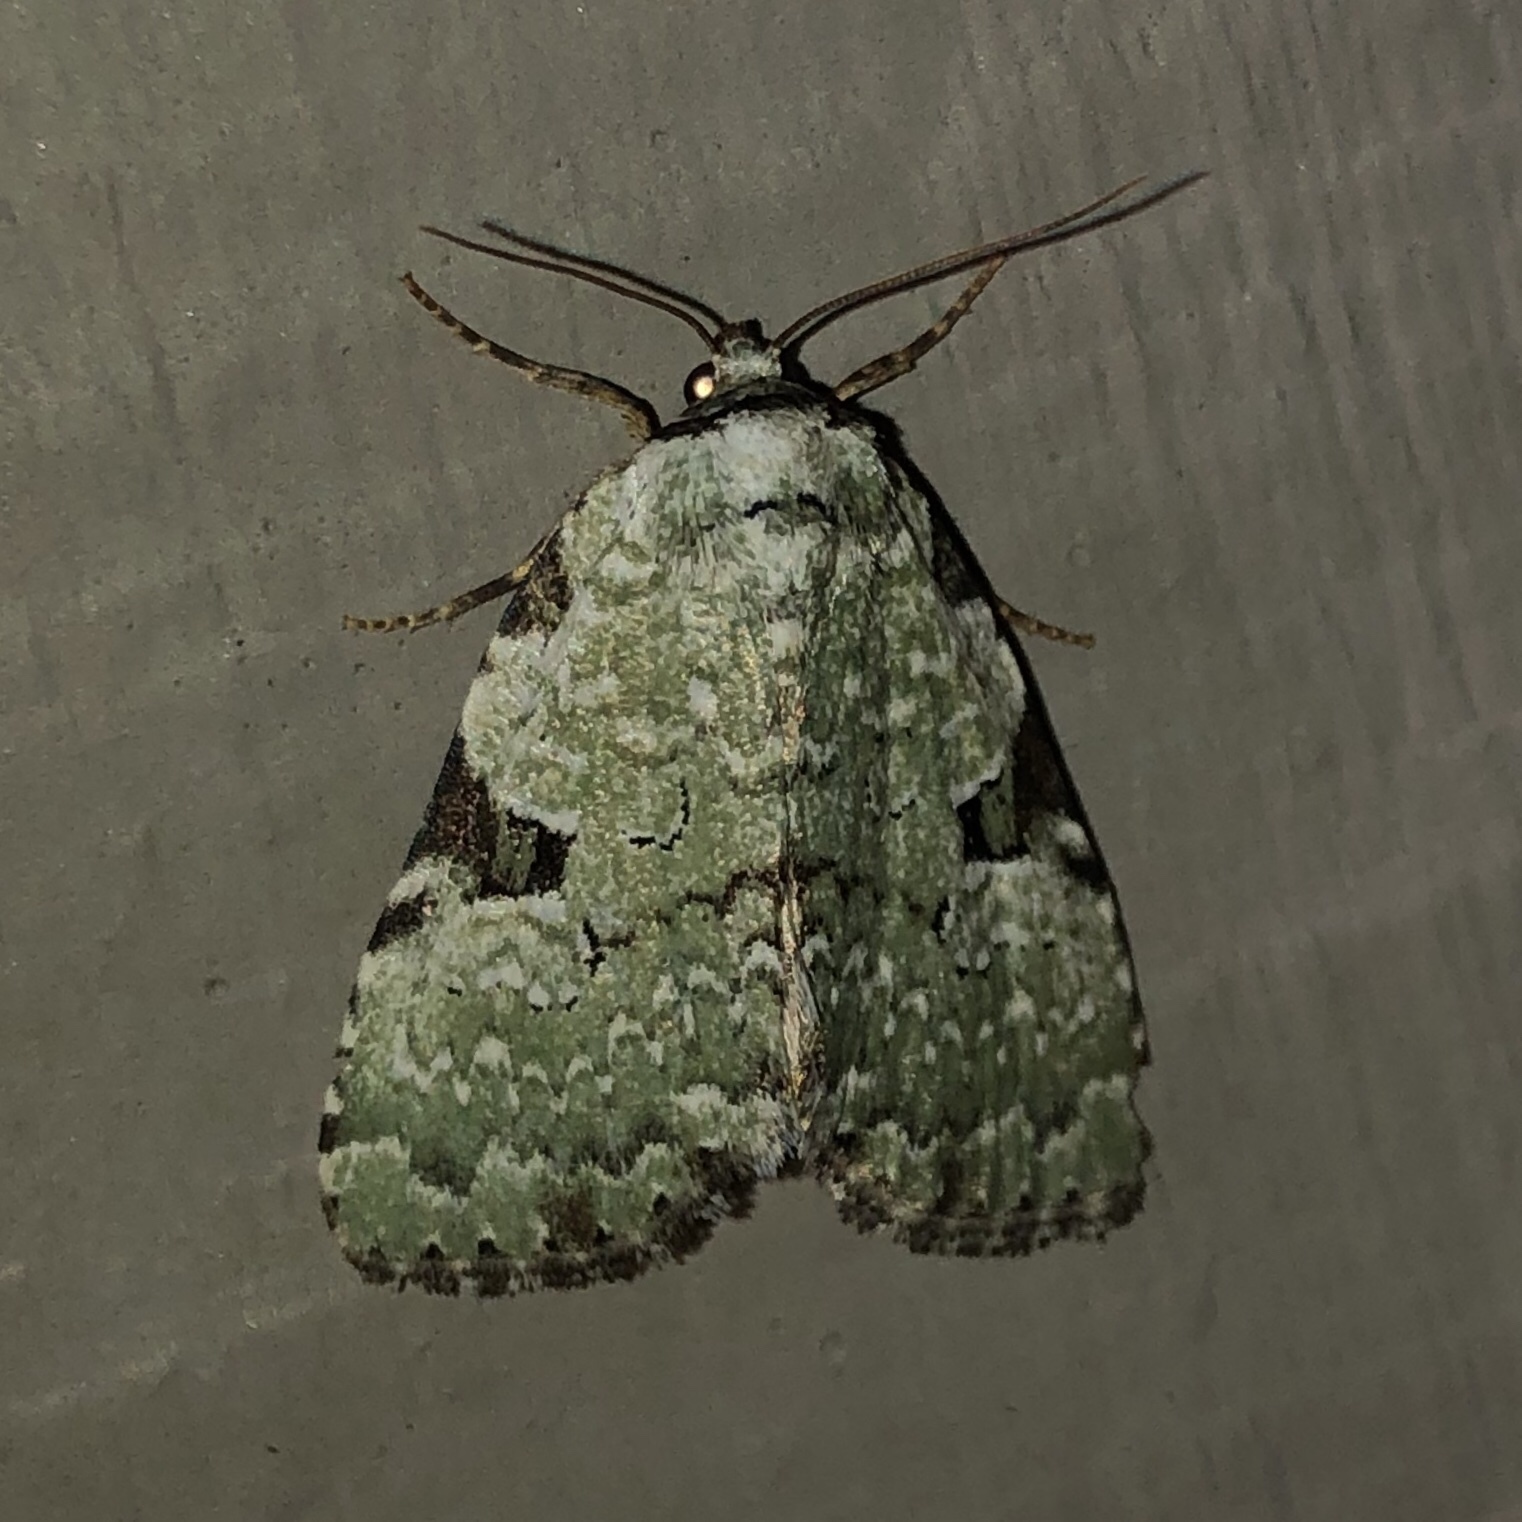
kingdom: Animalia
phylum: Arthropoda
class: Insecta
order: Lepidoptera
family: Noctuidae
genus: Leuconycta
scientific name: Leuconycta diphteroides
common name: Green leuconycta moth
